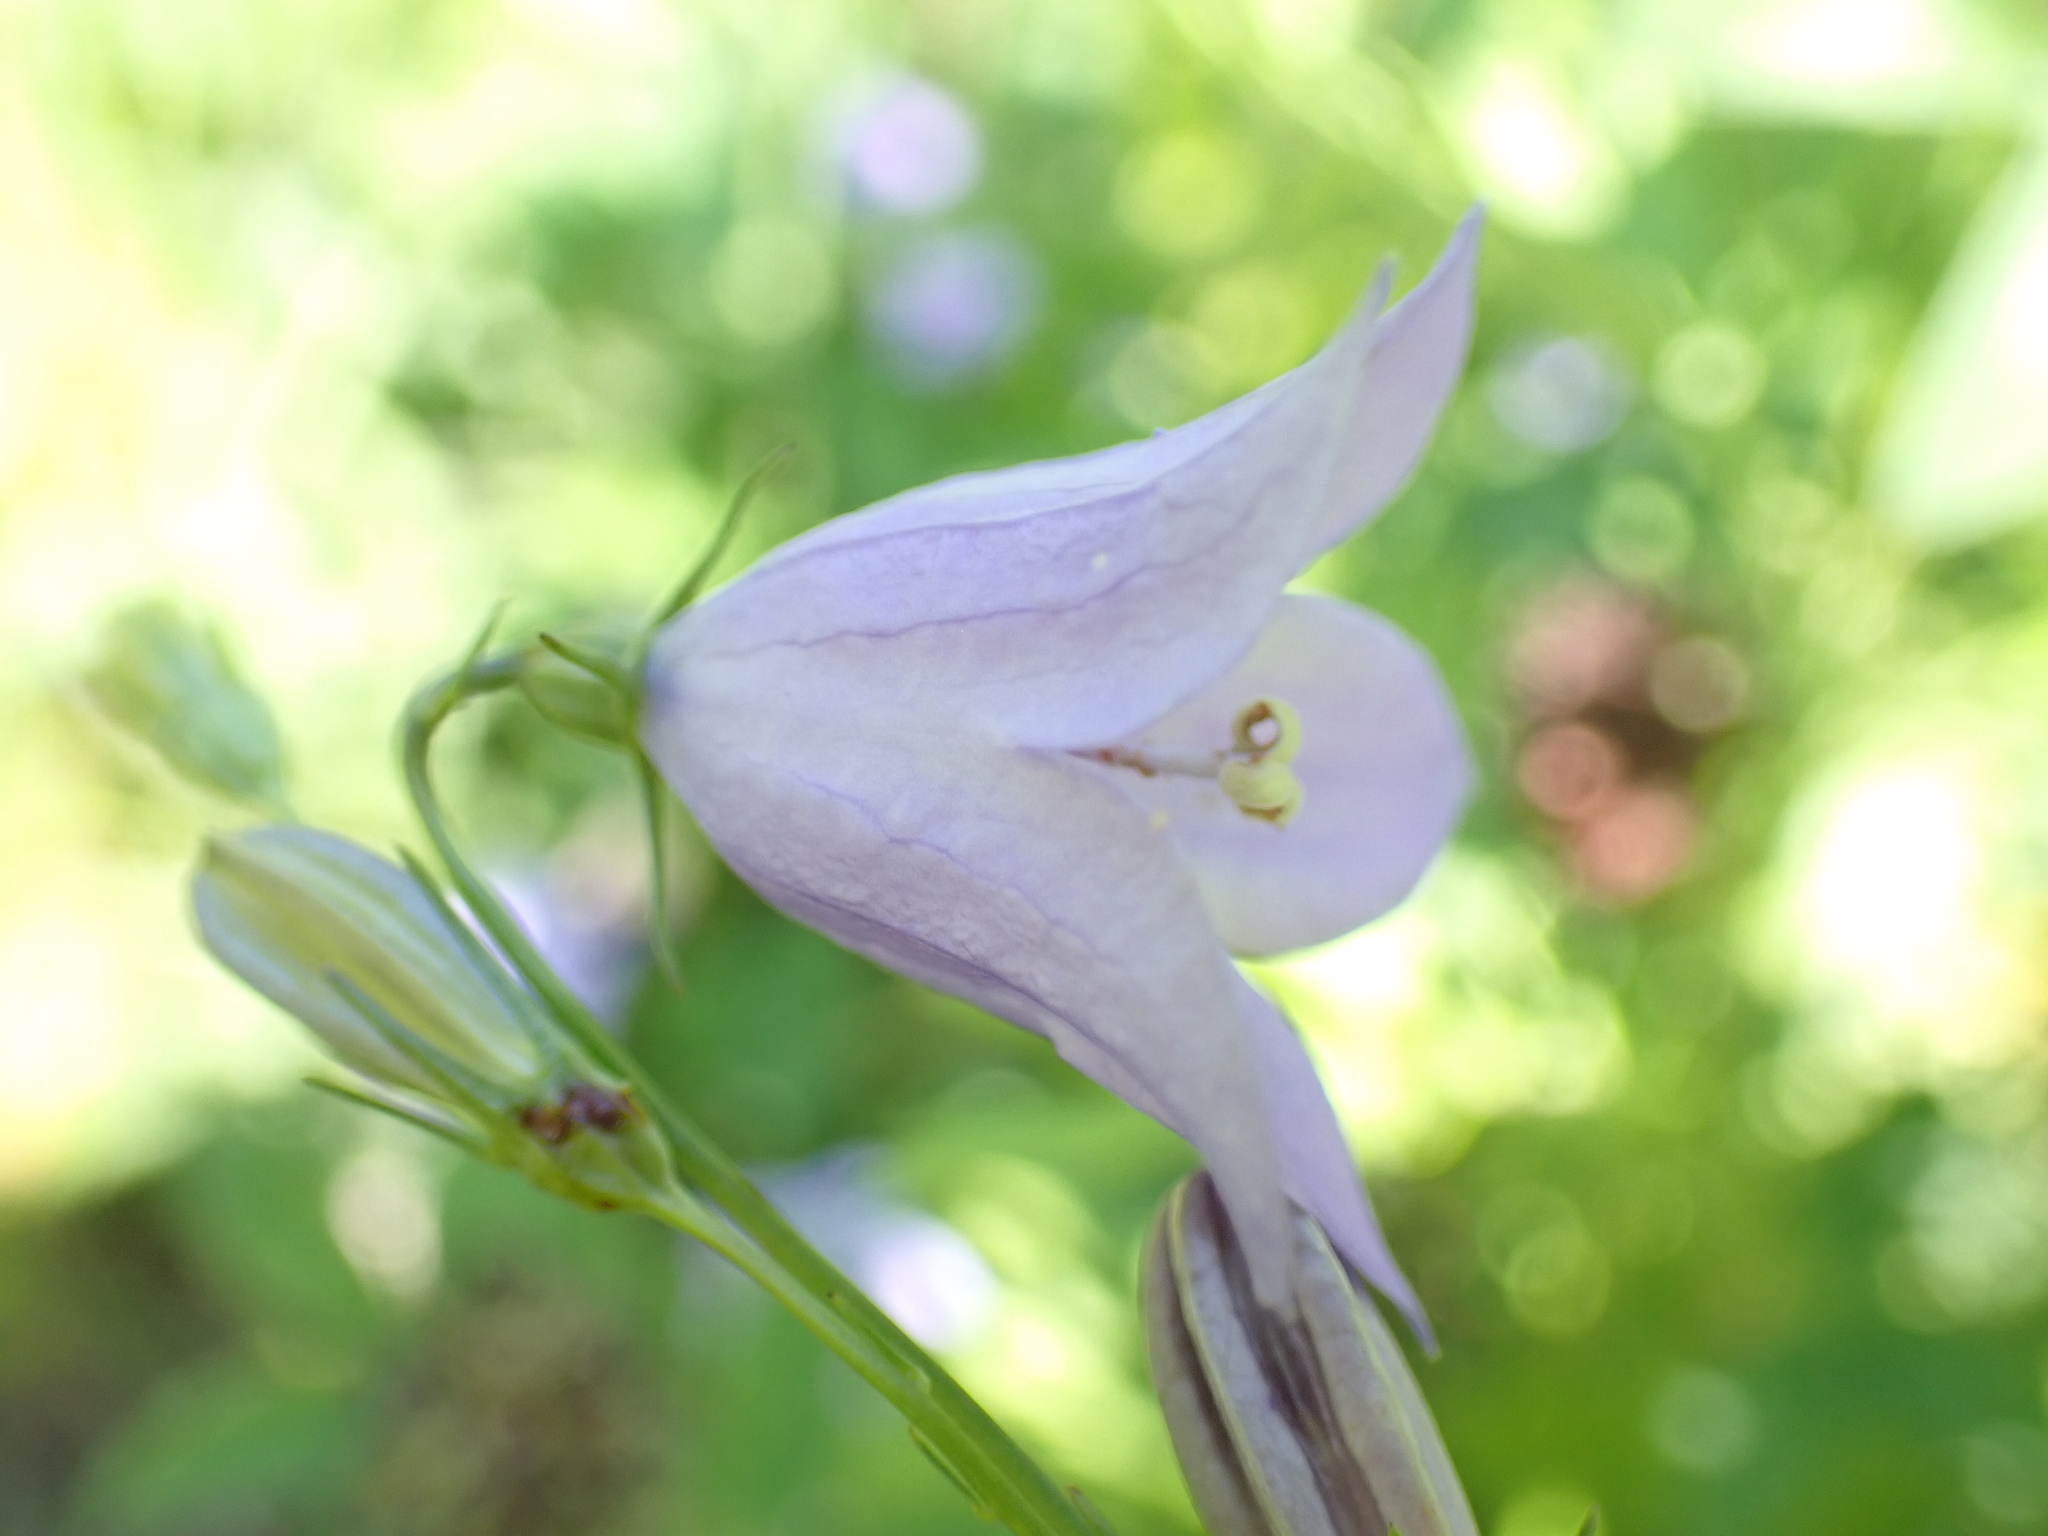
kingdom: Plantae
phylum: Tracheophyta
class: Magnoliopsida
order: Asterales
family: Campanulaceae
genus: Campanula
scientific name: Campanula intercedens
